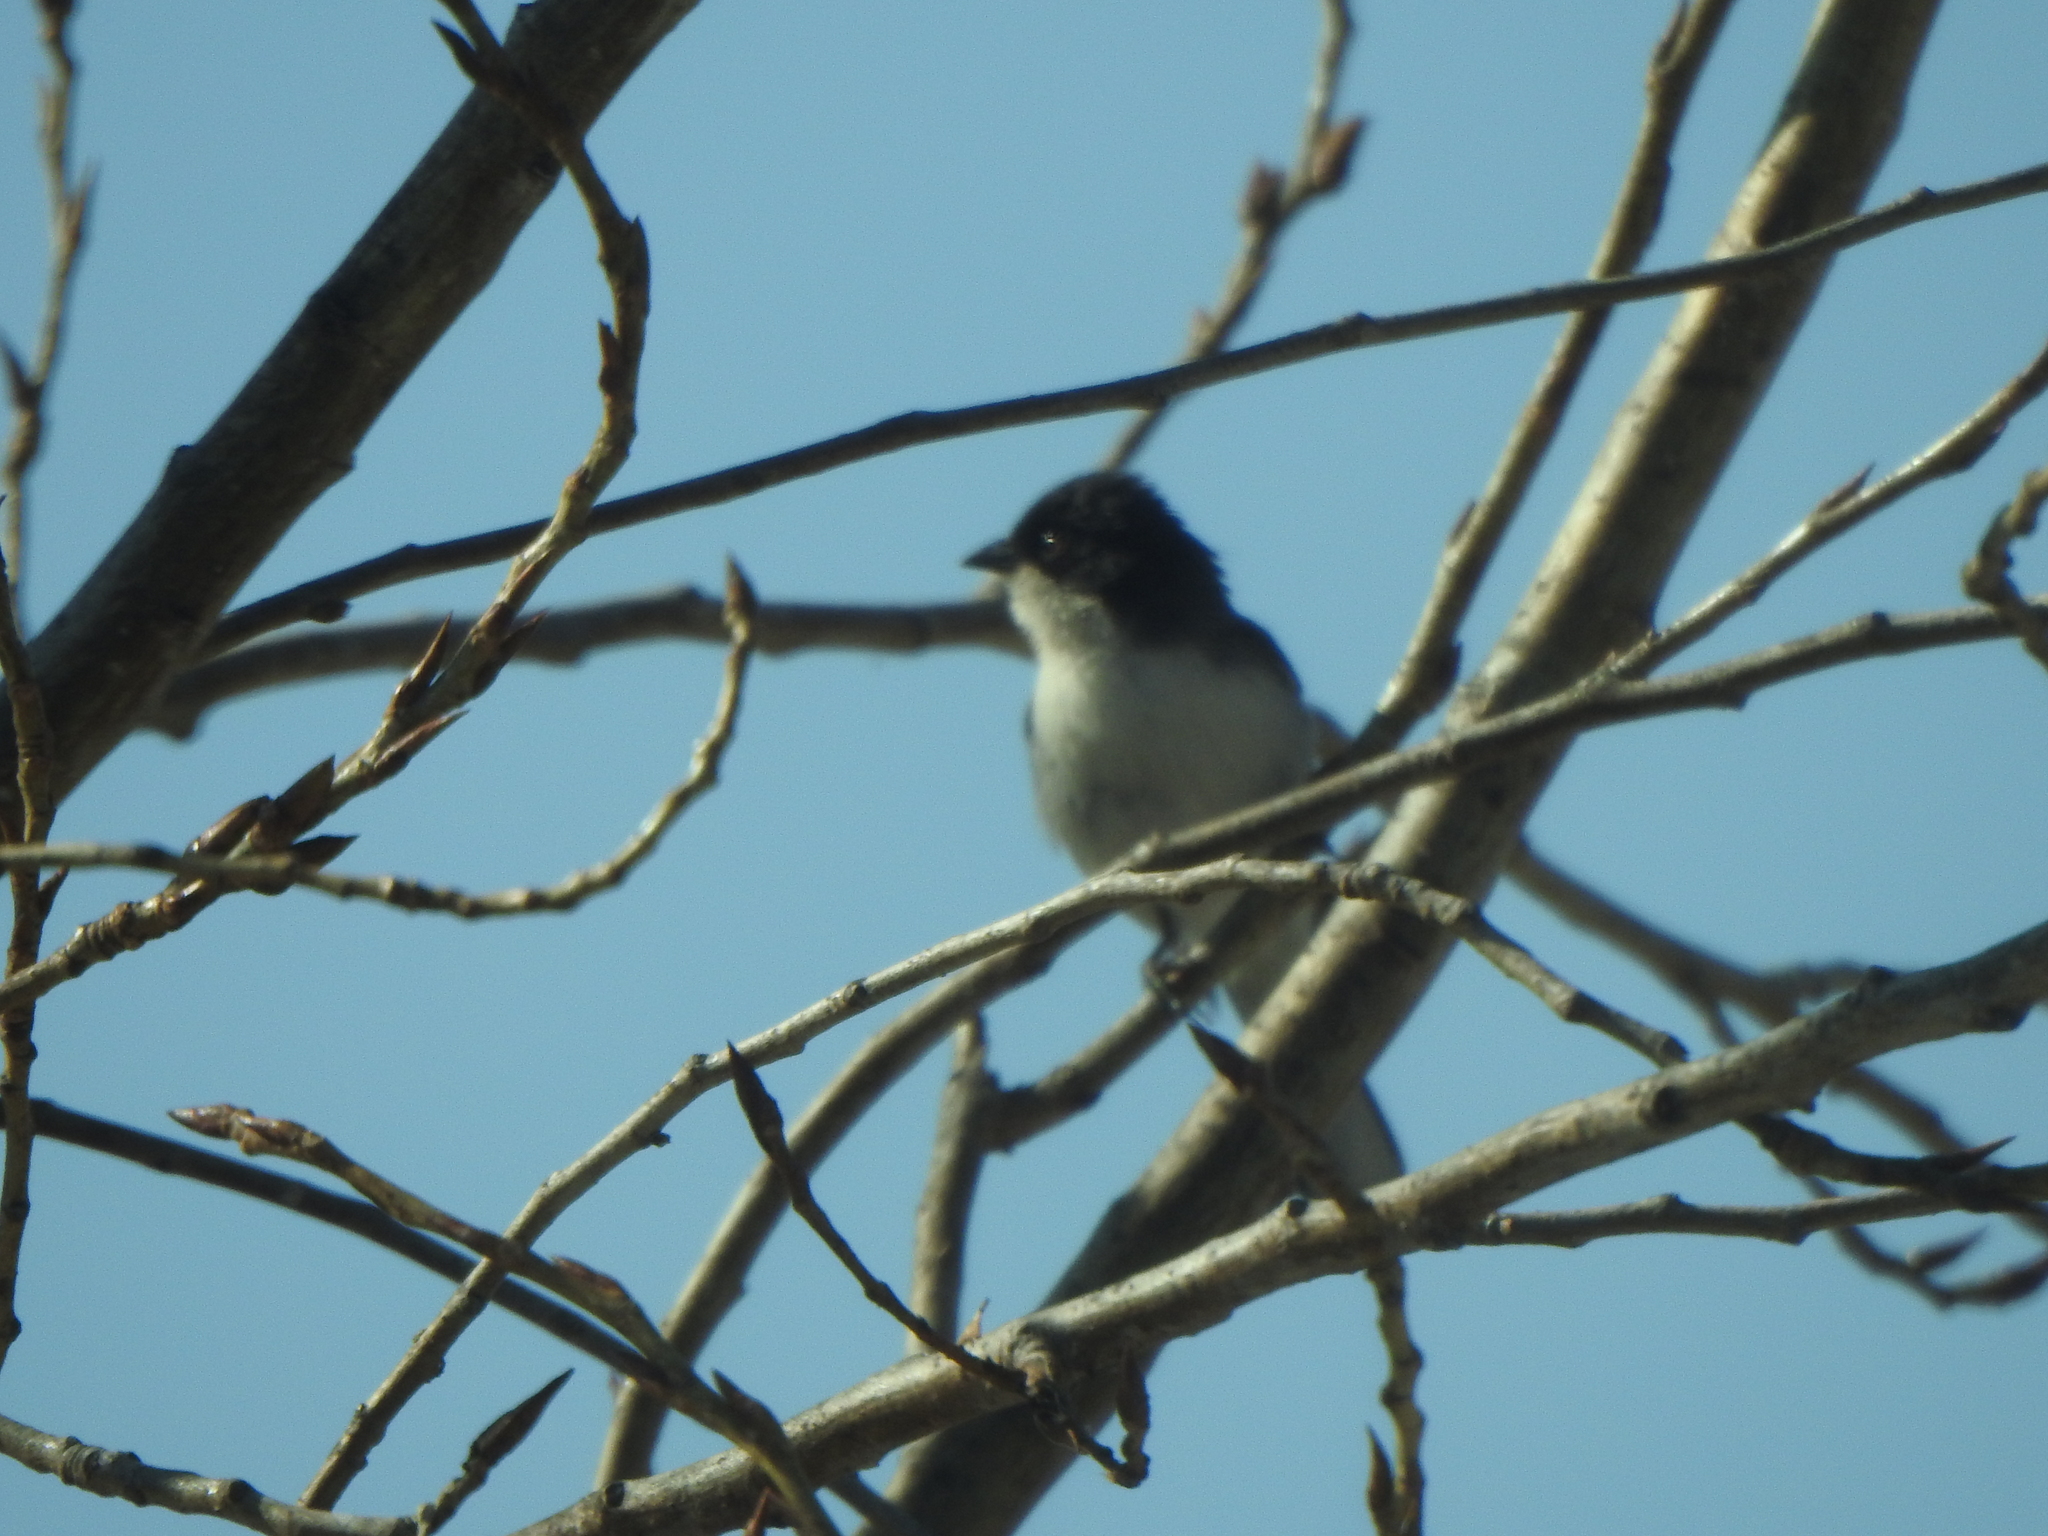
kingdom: Animalia
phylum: Chordata
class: Aves
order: Passeriformes
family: Thraupidae
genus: Microspingus
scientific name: Microspingus melanoleucus
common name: Black-capped warbling-finch
